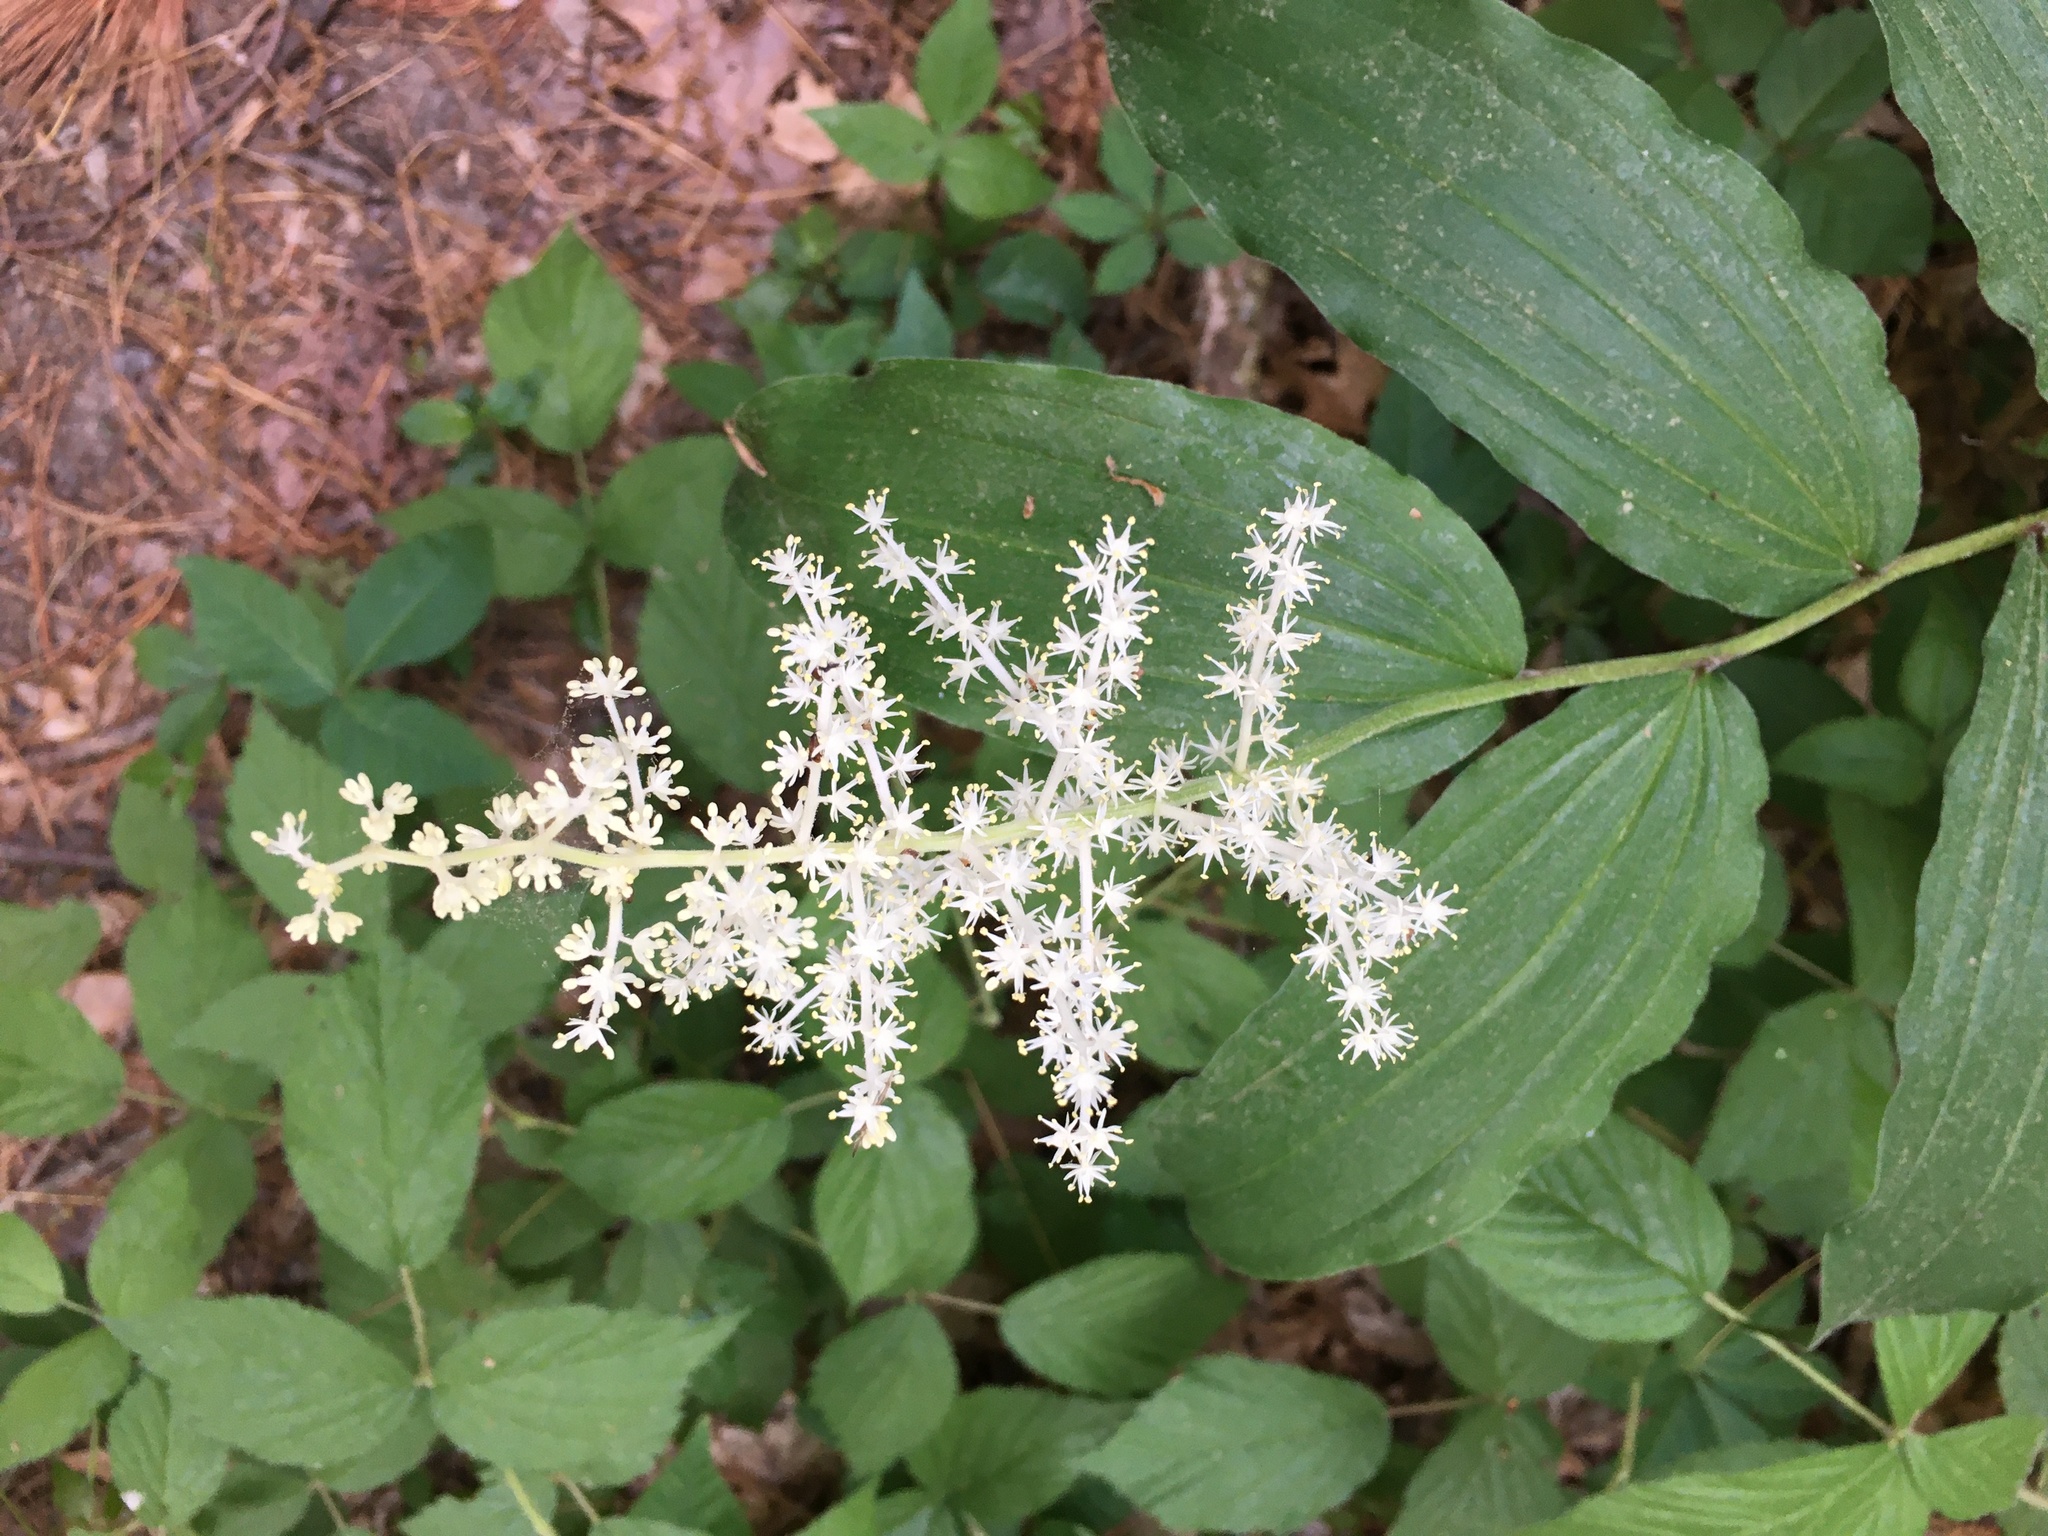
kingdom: Plantae
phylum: Tracheophyta
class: Liliopsida
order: Asparagales
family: Asparagaceae
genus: Maianthemum
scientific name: Maianthemum racemosum
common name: False spikenard
